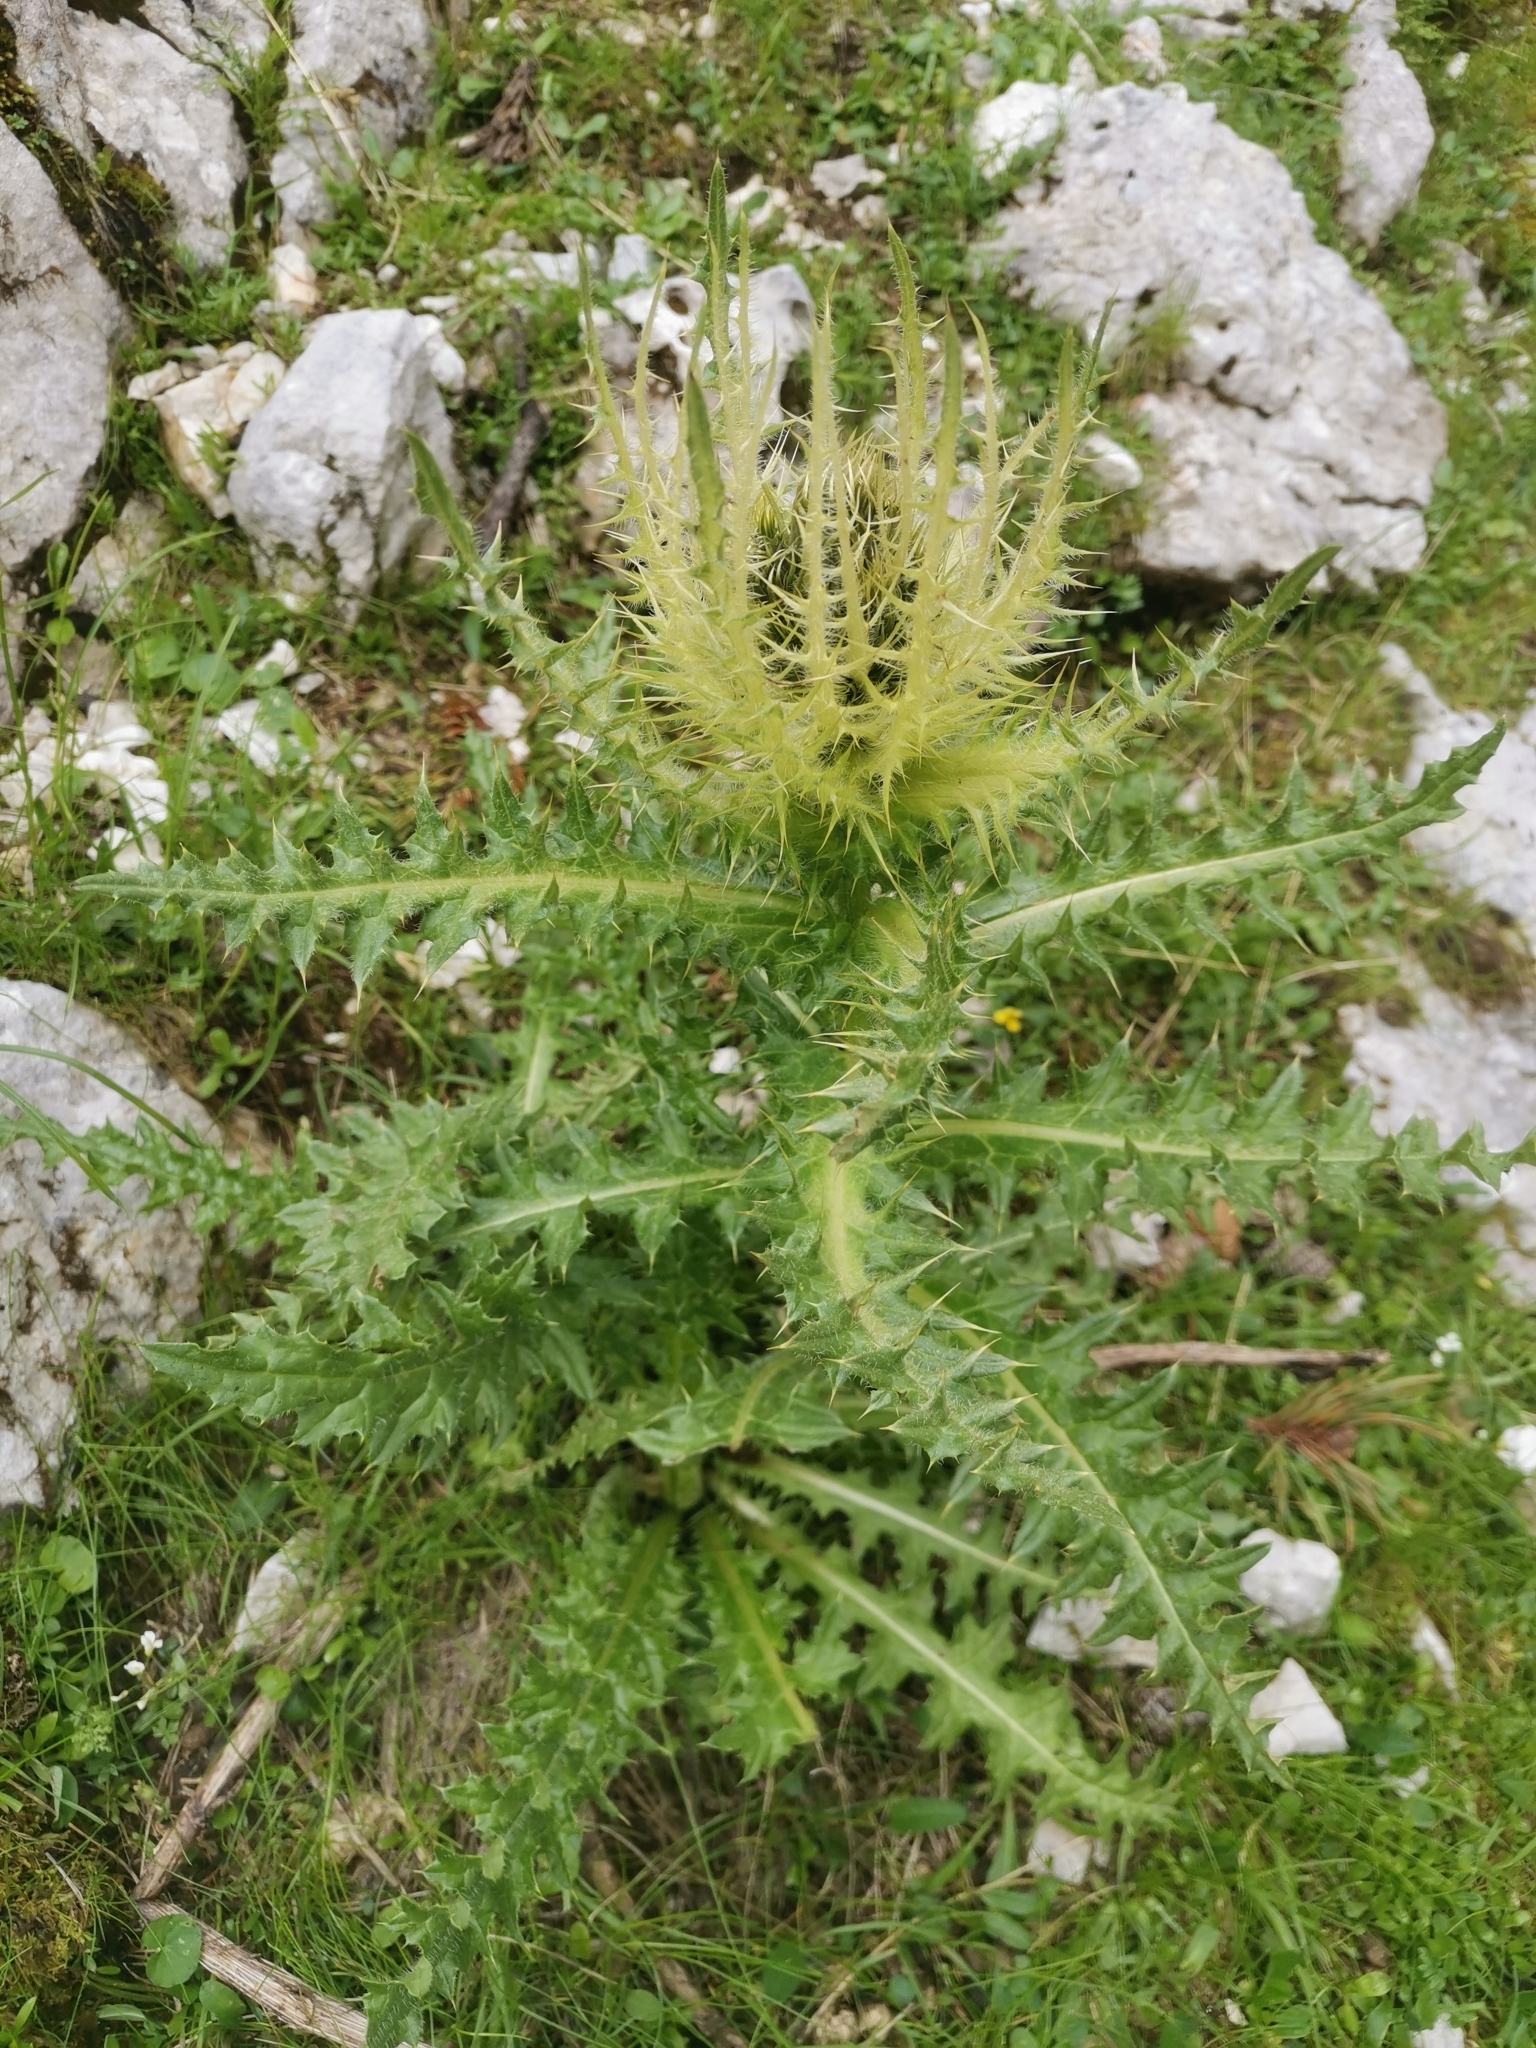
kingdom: Plantae
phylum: Tracheophyta
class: Magnoliopsida
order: Asterales
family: Asteraceae
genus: Cirsium
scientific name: Cirsium spinosissimum
